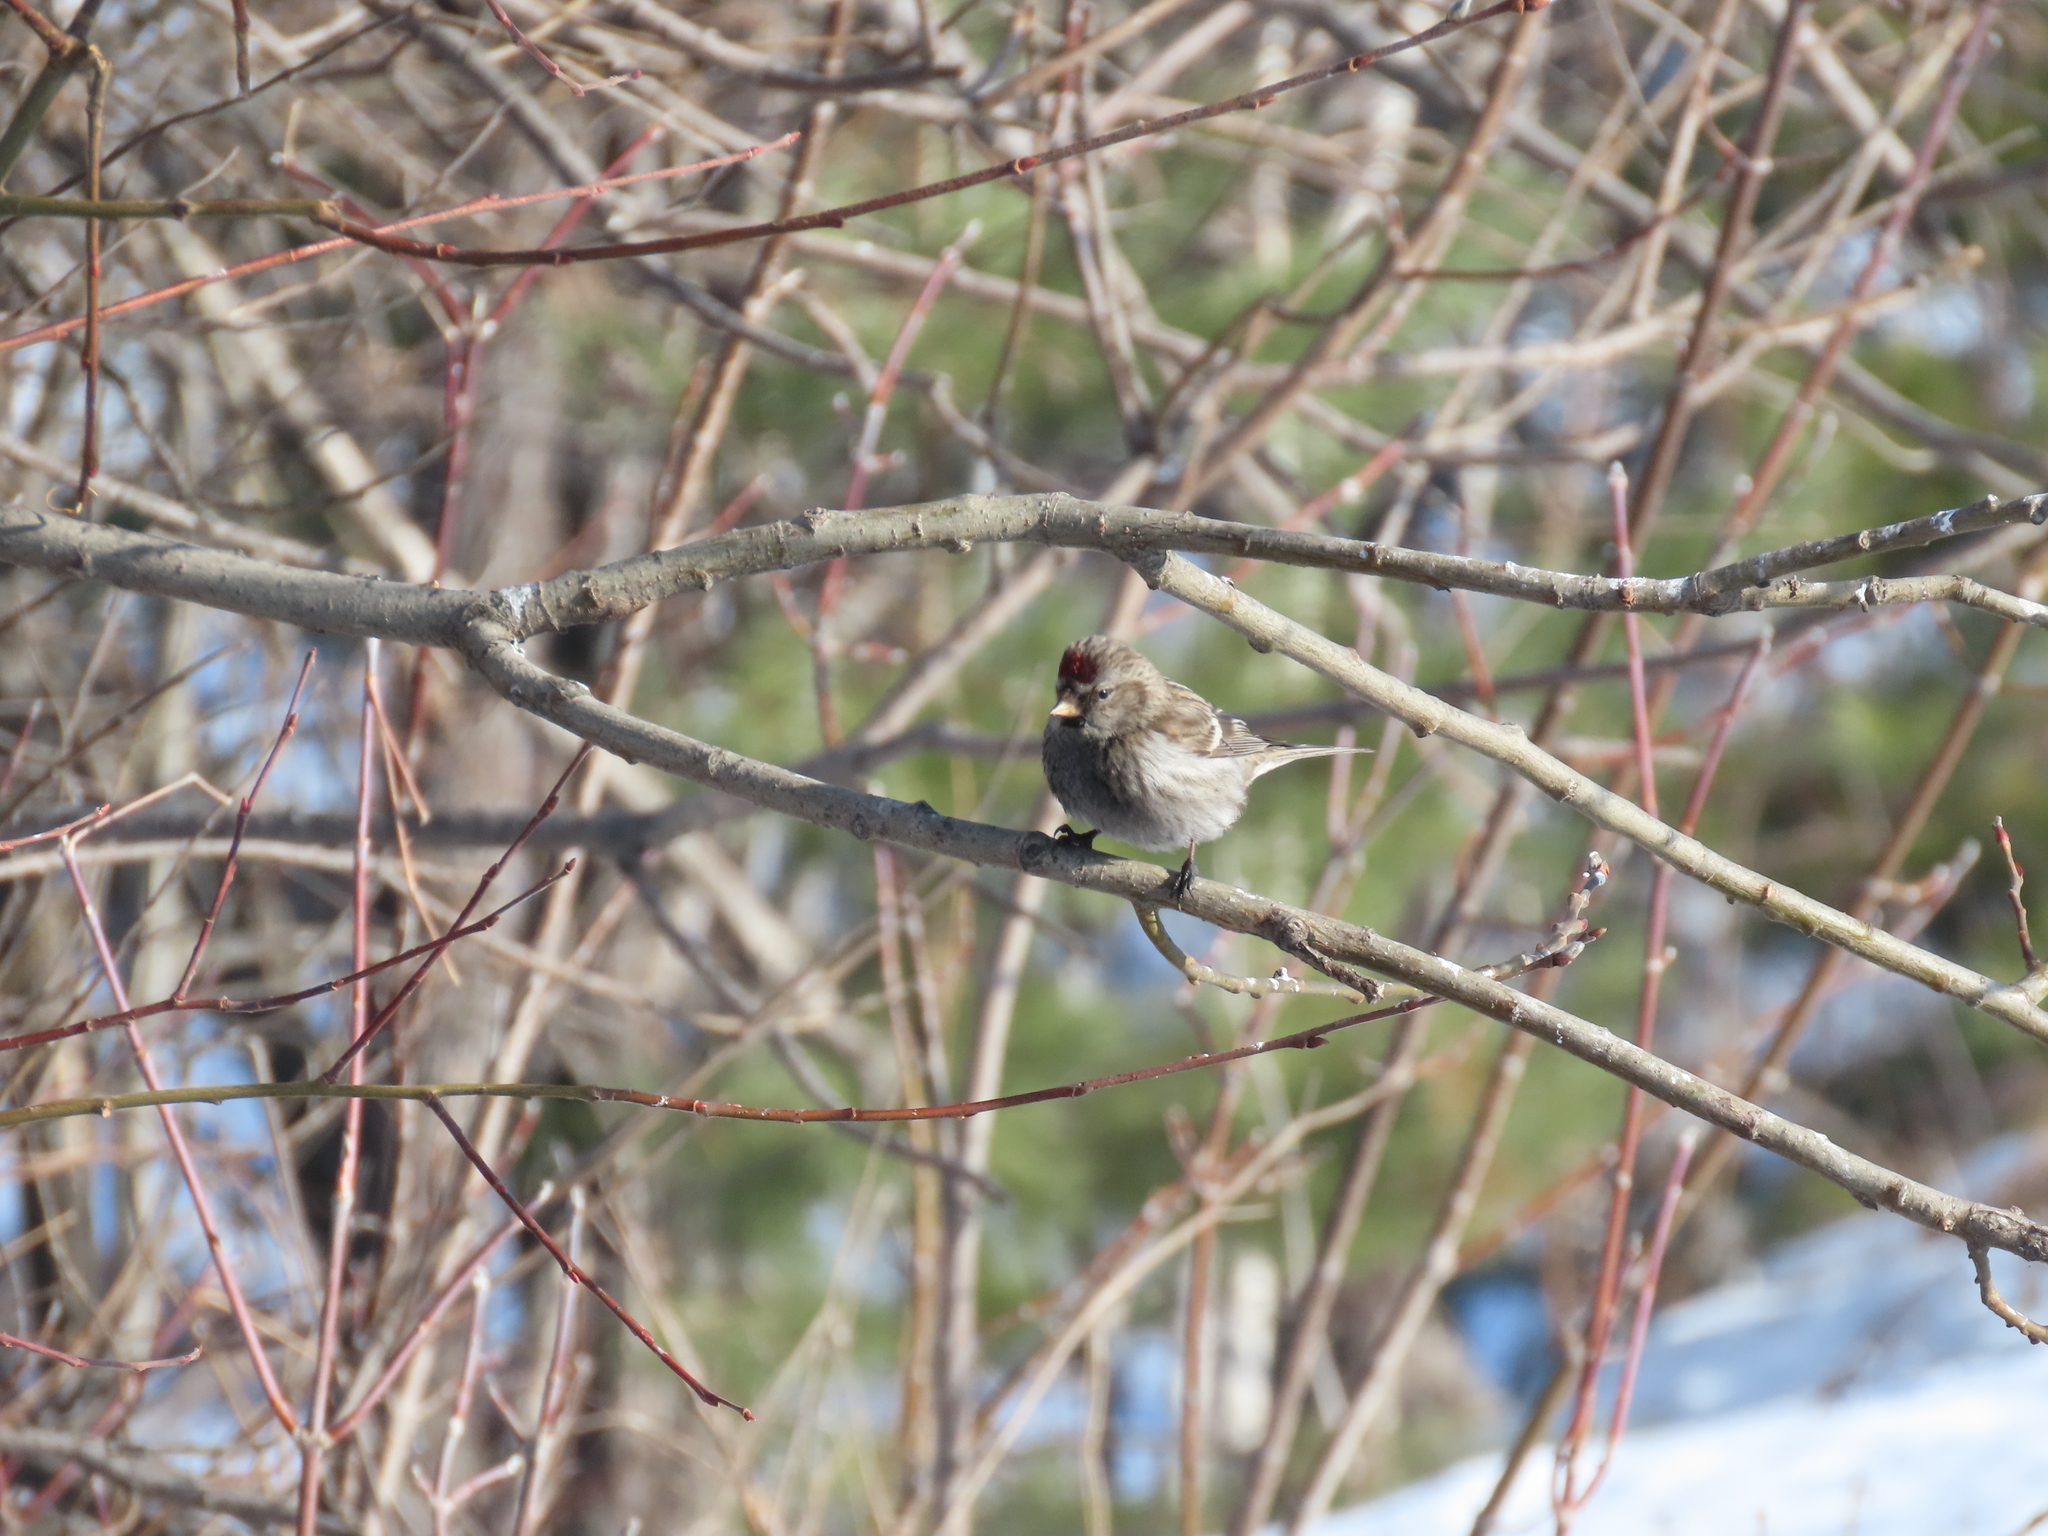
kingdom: Animalia
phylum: Chordata
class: Aves
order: Passeriformes
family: Fringillidae
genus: Acanthis
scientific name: Acanthis flammea
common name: Common redpoll
